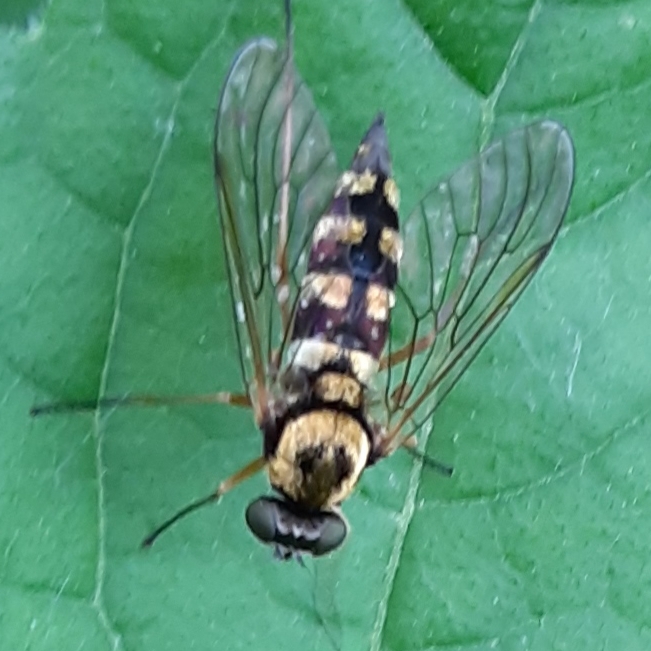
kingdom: Animalia
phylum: Arthropoda
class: Insecta
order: Diptera
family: Rhagionidae
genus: Chrysopilus
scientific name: Chrysopilus ornatus
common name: Ornate snipe fly
